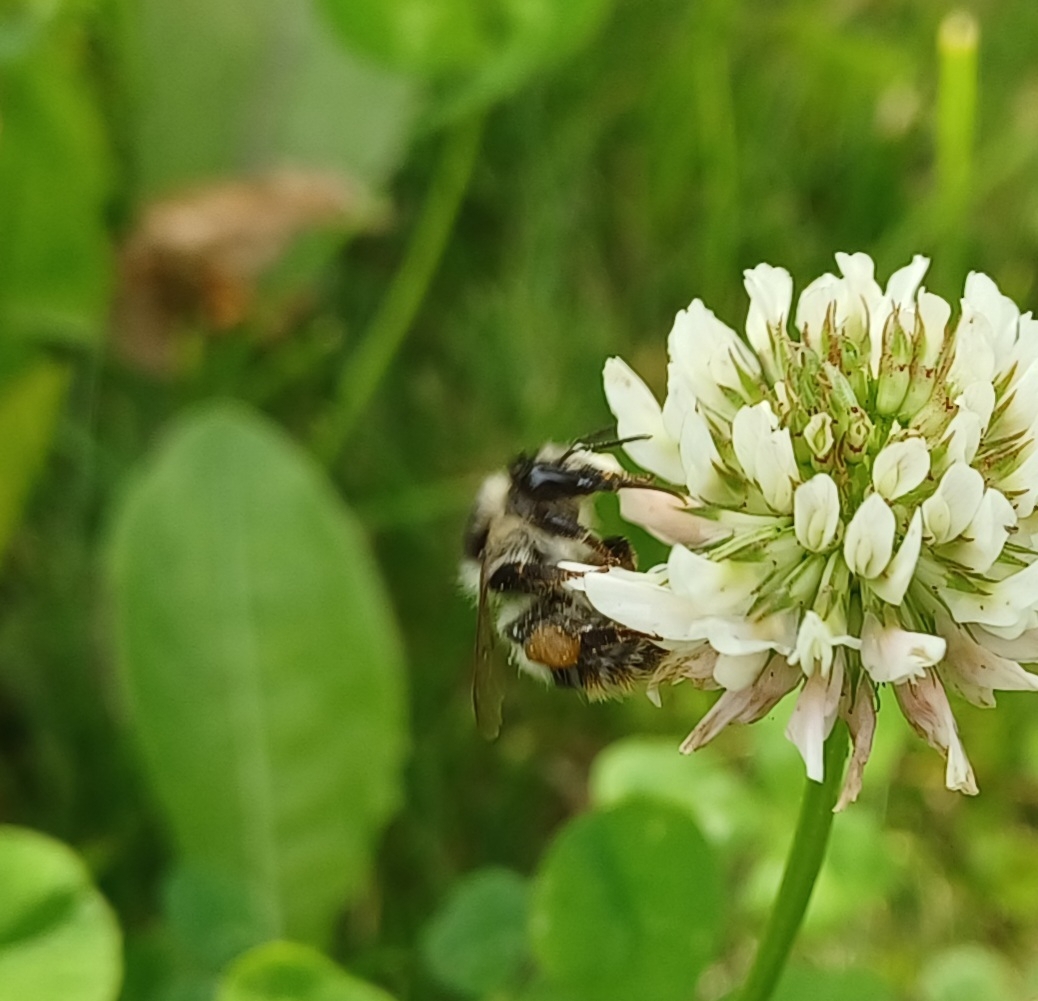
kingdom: Animalia
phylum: Arthropoda
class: Insecta
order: Hymenoptera
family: Apidae
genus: Bombus
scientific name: Bombus sylvarum
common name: Shrill carder bee
